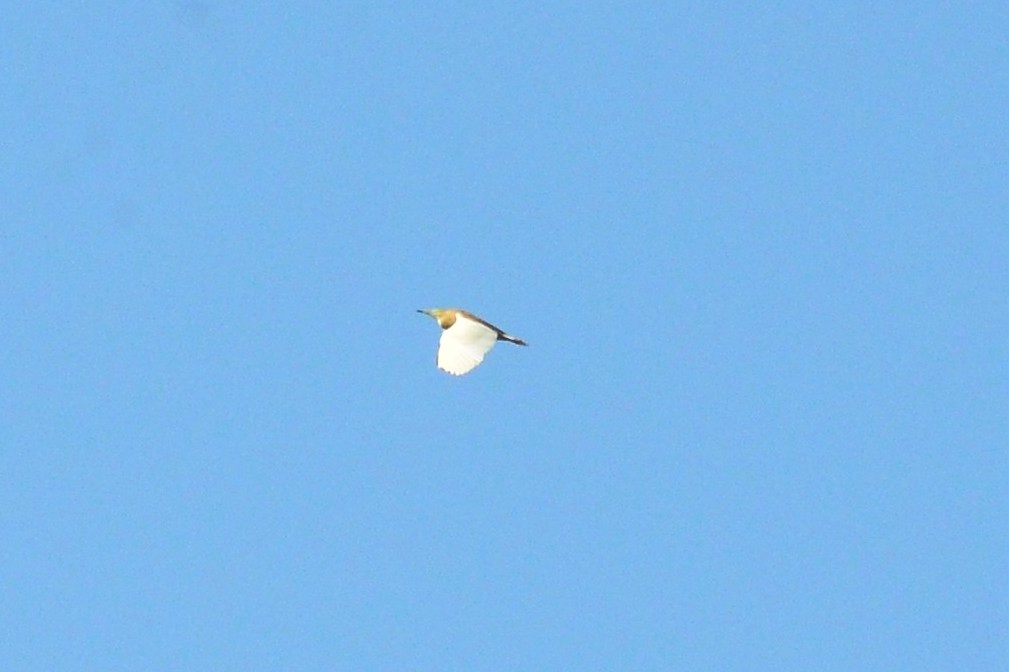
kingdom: Animalia
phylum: Chordata
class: Aves
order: Pelecaniformes
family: Ardeidae
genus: Ardeola
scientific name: Ardeola grayii
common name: Indian pond heron
